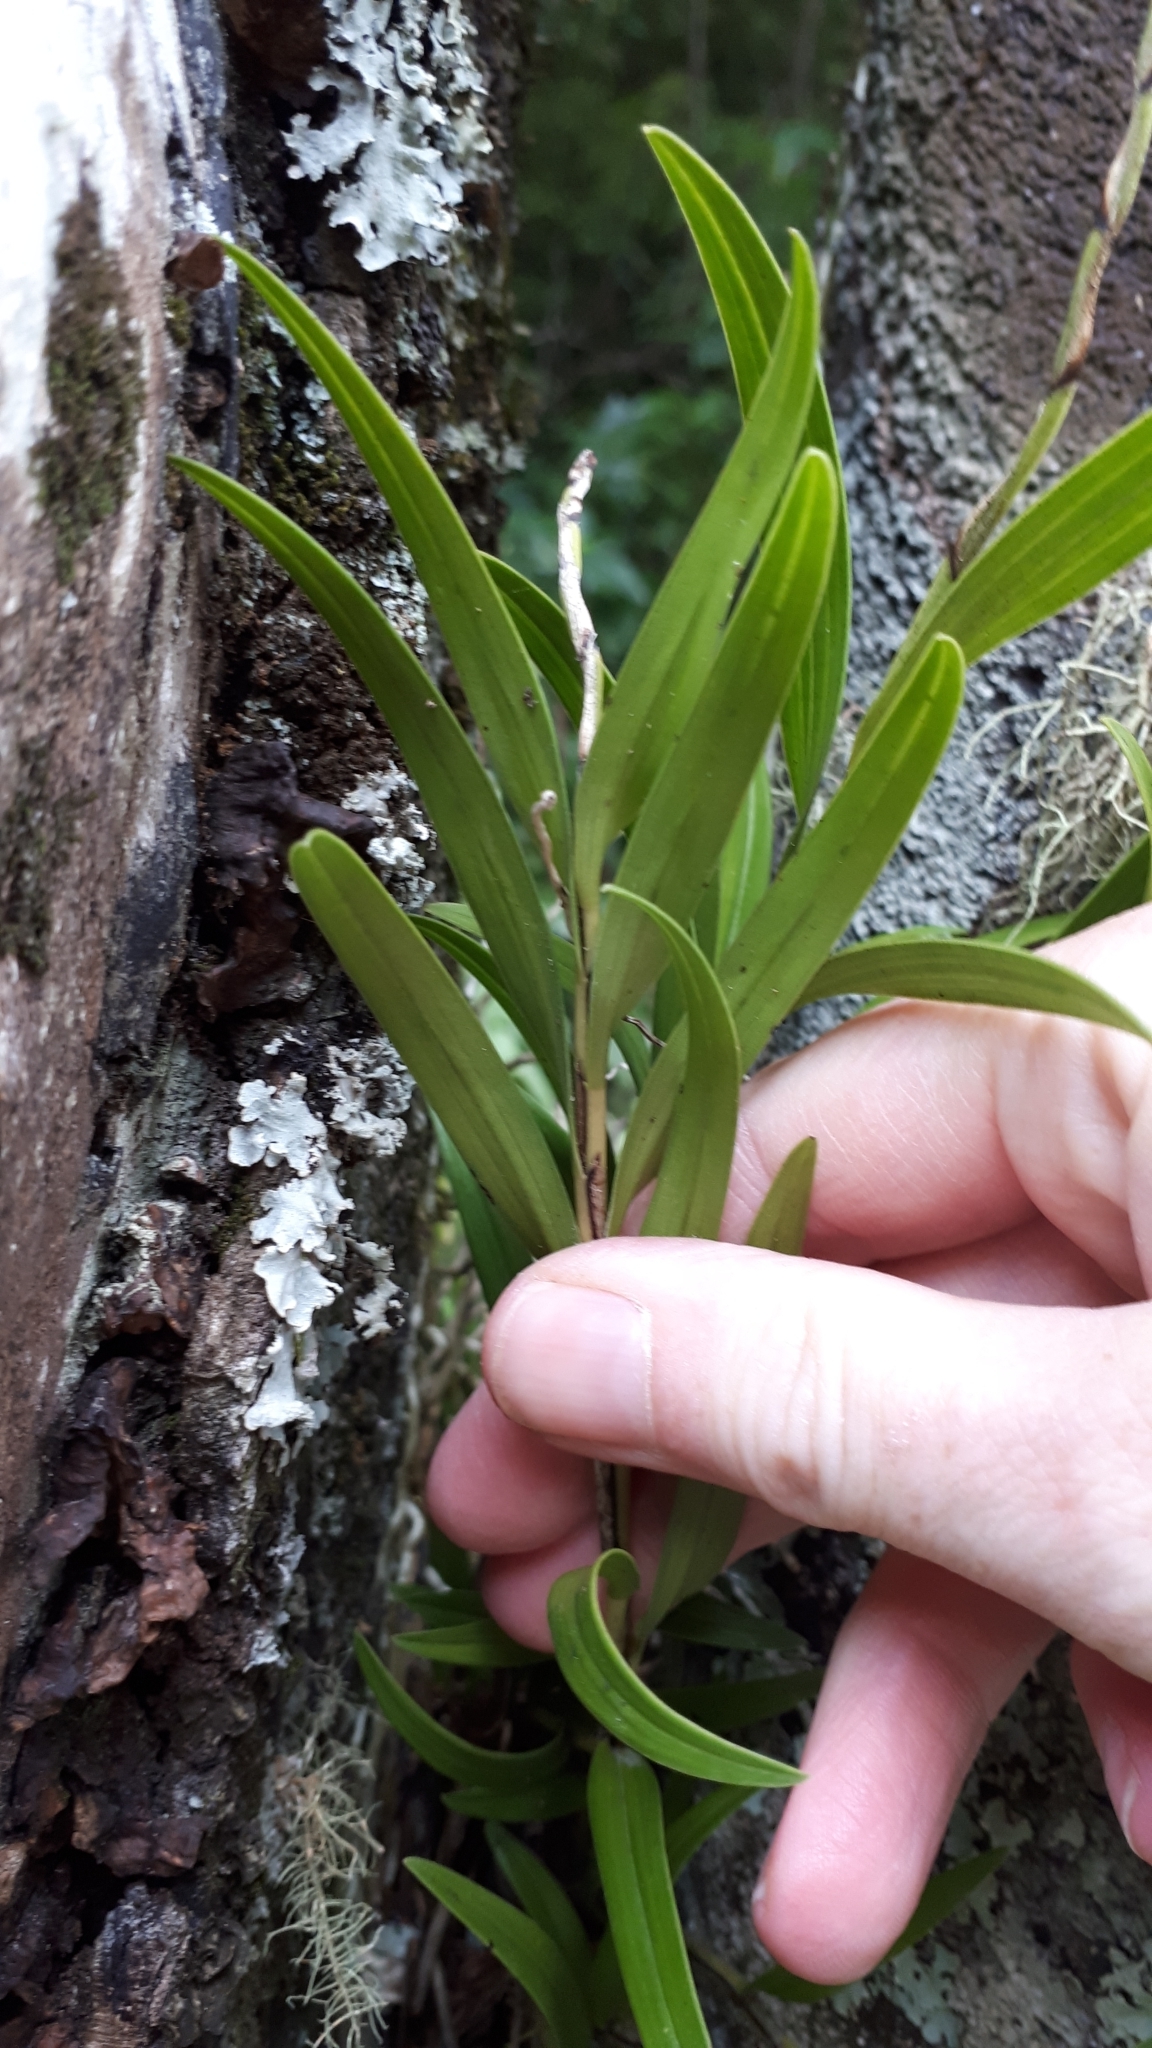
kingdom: Plantae
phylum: Tracheophyta
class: Liliopsida
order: Asparagales
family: Orchidaceae
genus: Earina
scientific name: Earina autumnalis
